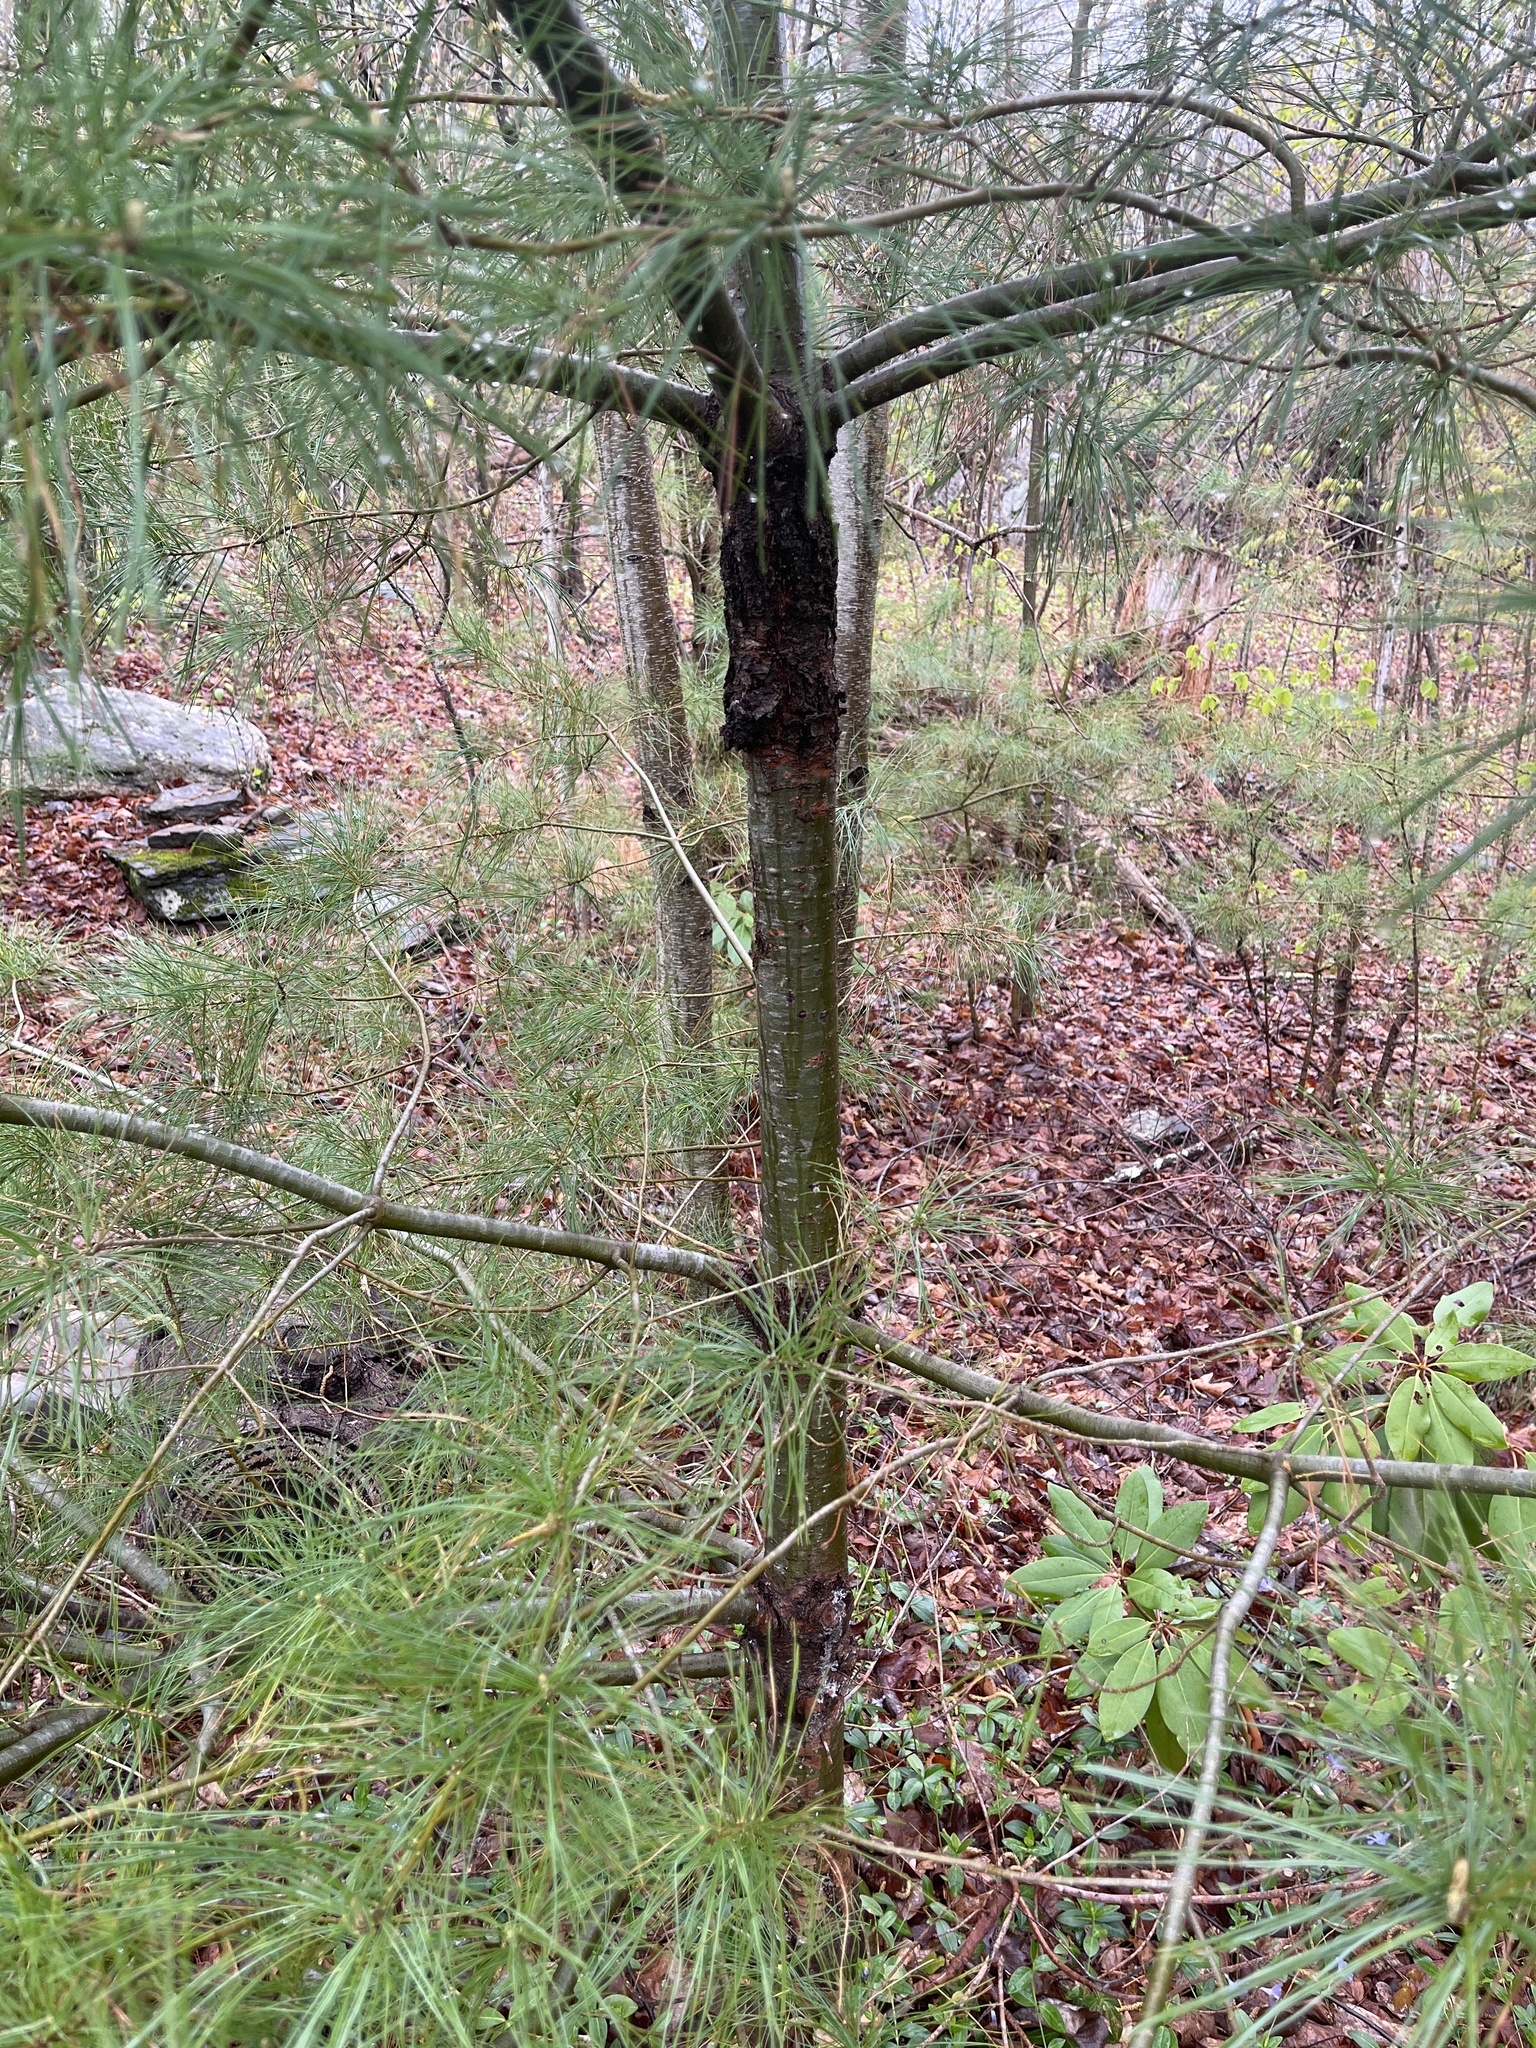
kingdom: Plantae
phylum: Tracheophyta
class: Pinopsida
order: Pinales
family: Pinaceae
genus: Pinus
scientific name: Pinus strobus
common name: Weymouth pine
